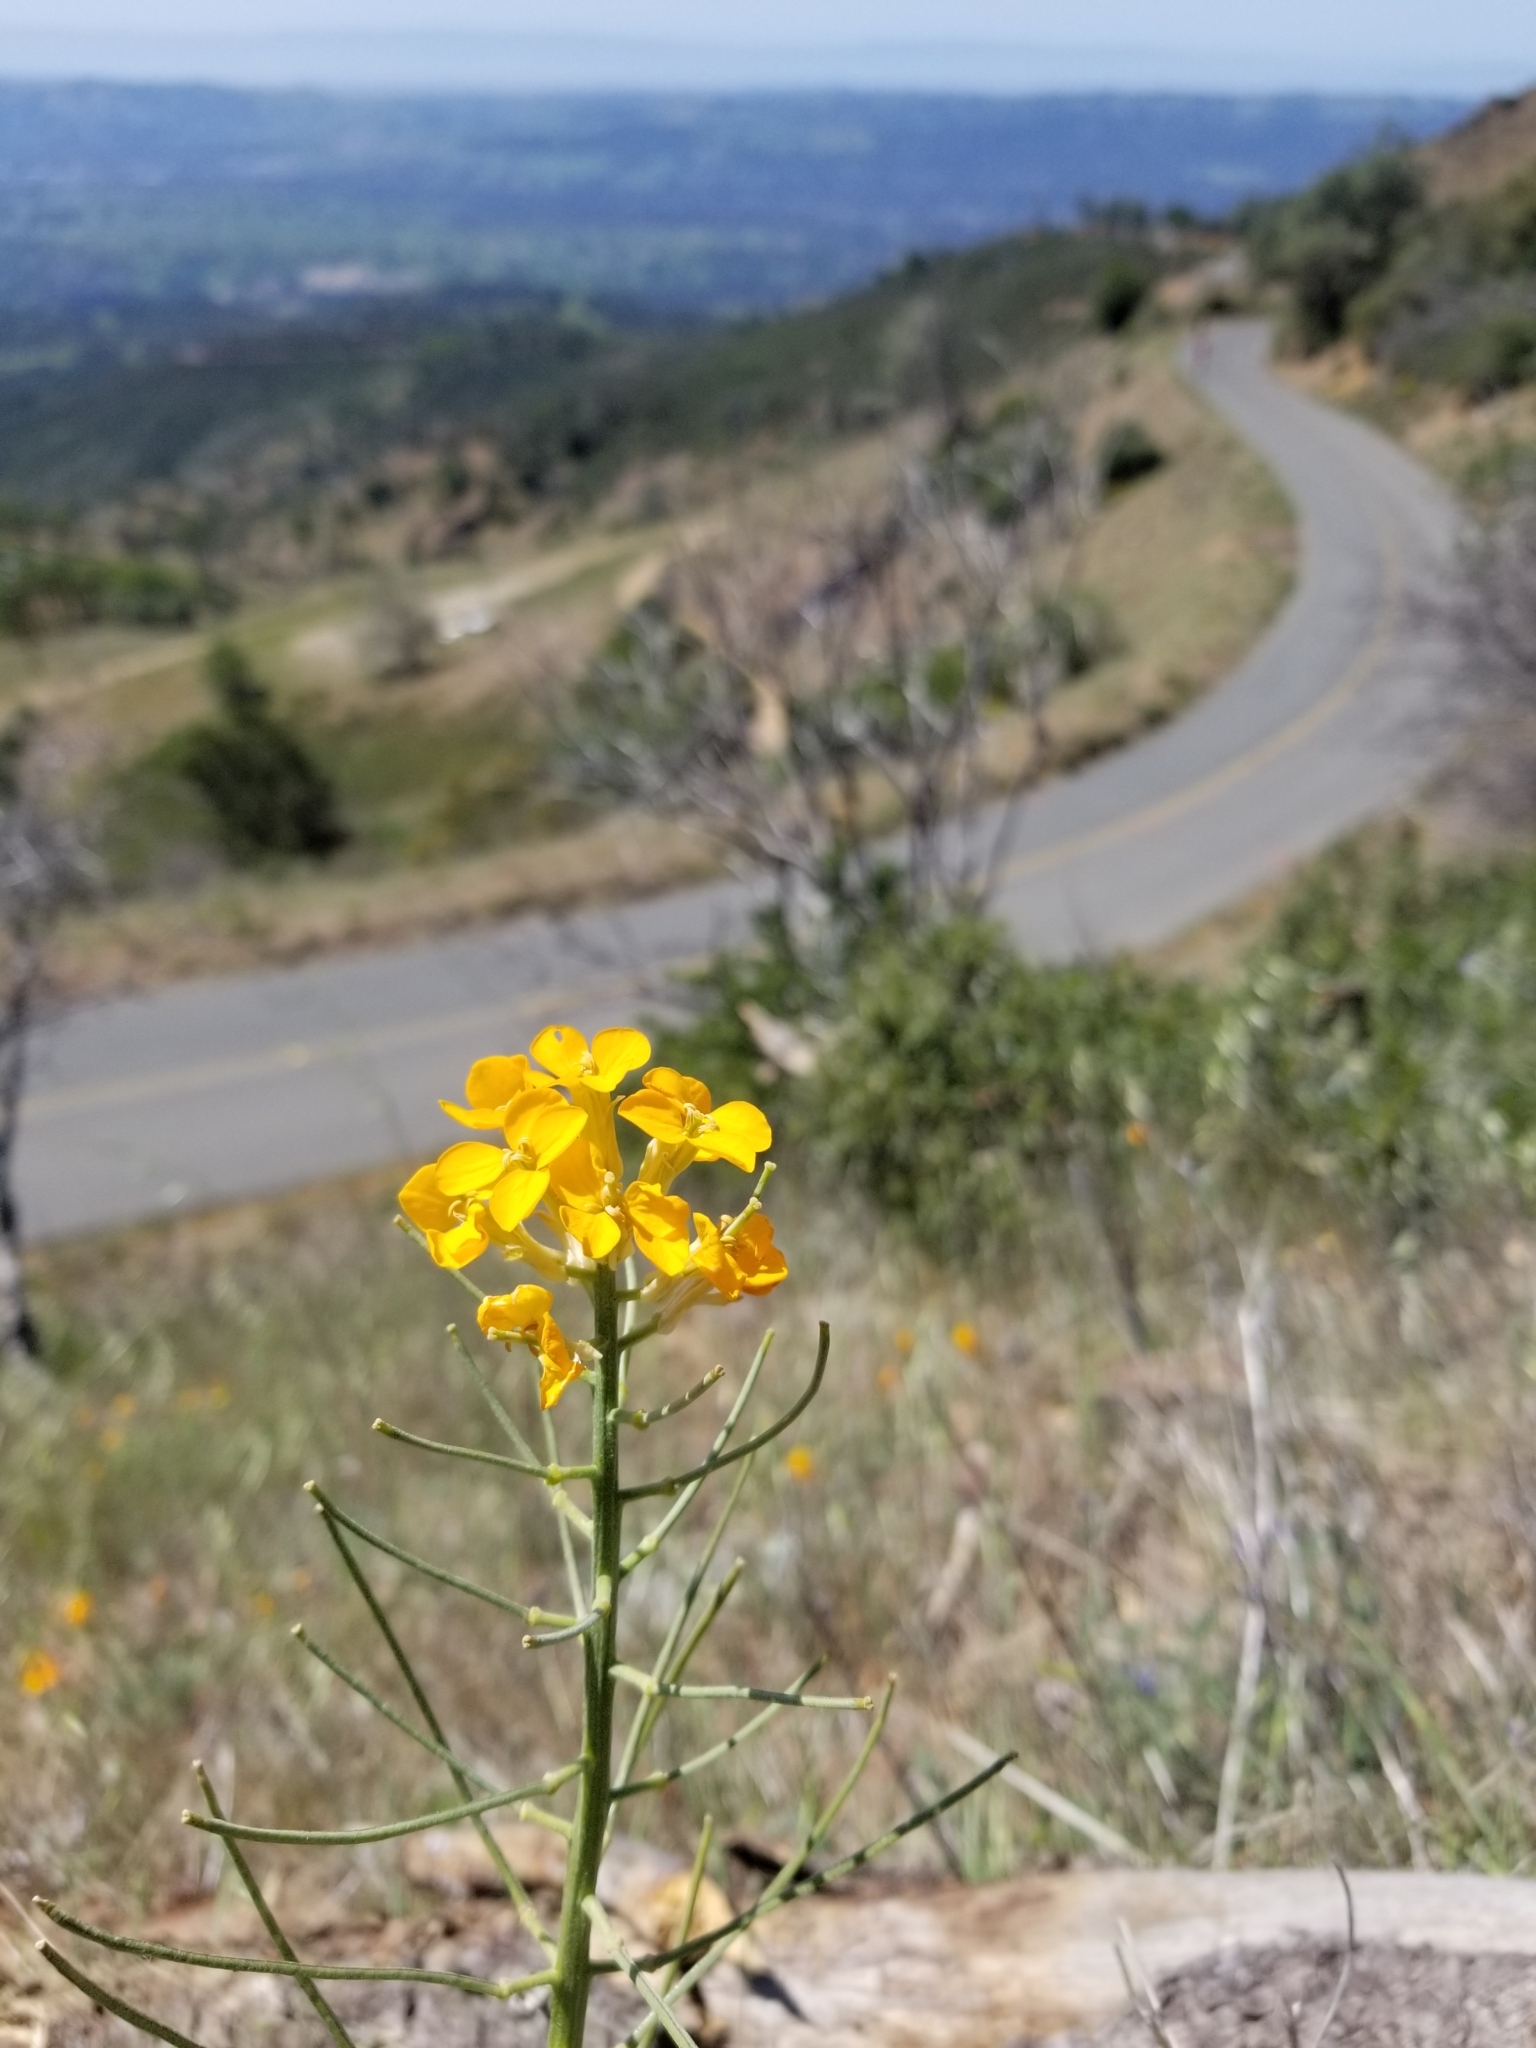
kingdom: Plantae
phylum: Tracheophyta
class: Magnoliopsida
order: Brassicales
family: Brassicaceae
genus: Erysimum
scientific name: Erysimum capitatum
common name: Western wallflower
